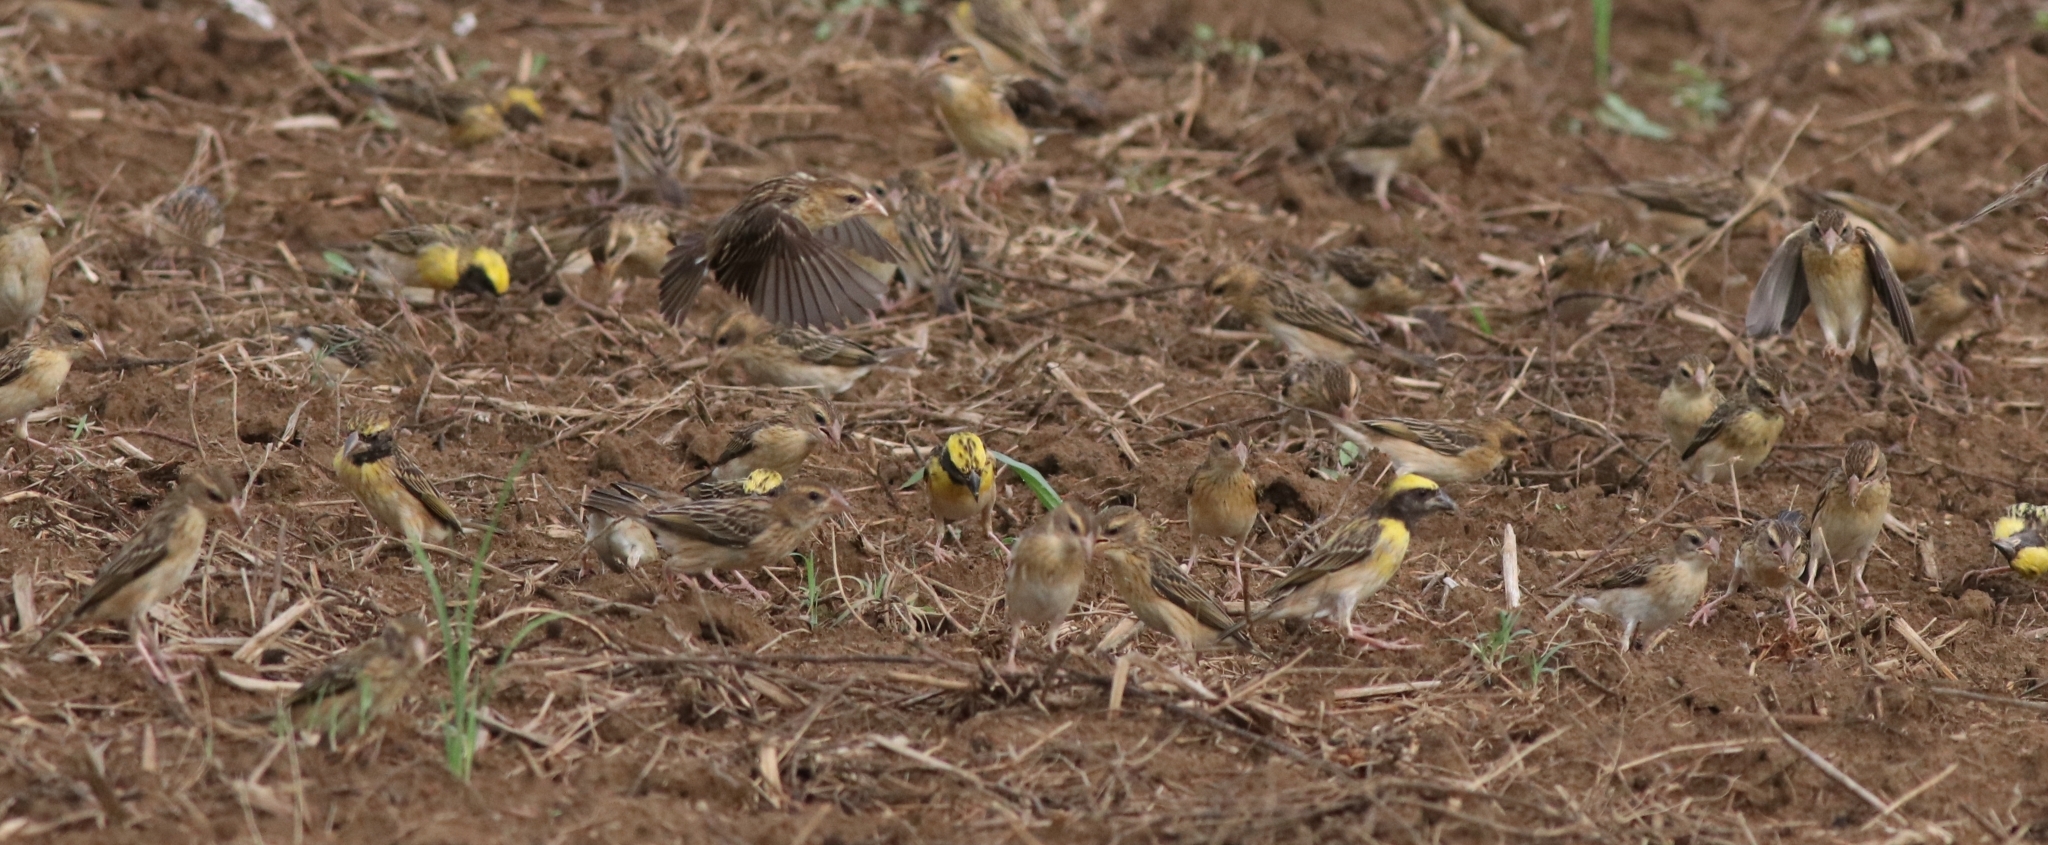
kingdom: Animalia
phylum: Chordata
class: Aves
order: Passeriformes
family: Ploceidae
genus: Ploceus
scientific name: Ploceus philippinus
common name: Baya weaver
